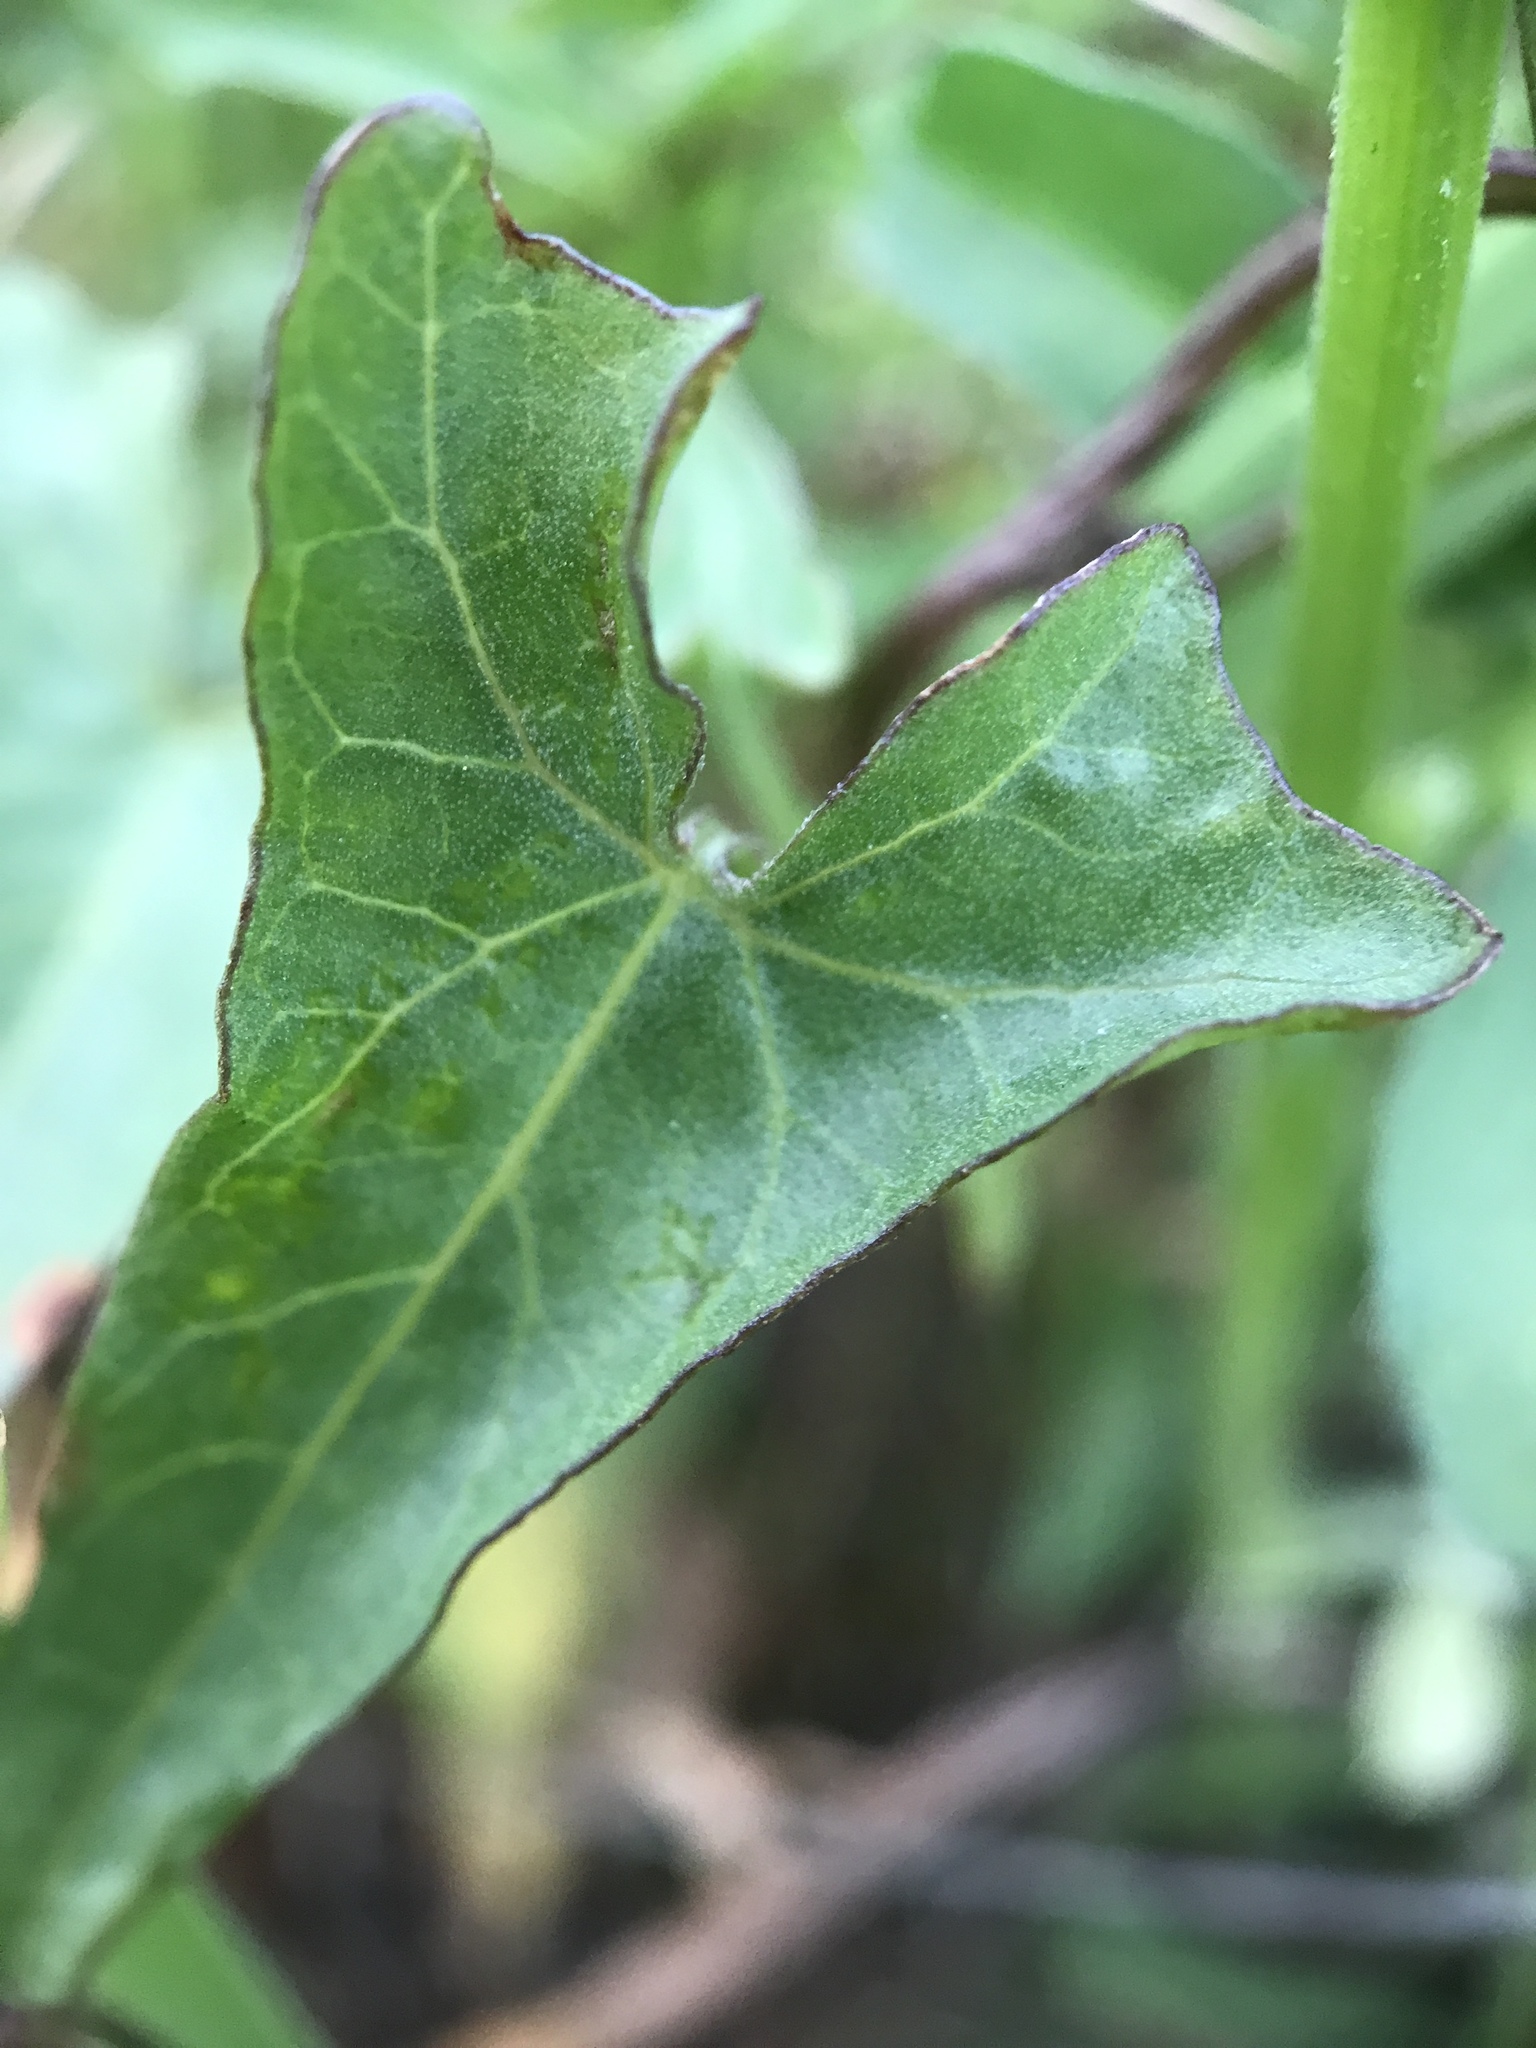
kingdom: Plantae
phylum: Tracheophyta
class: Magnoliopsida
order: Solanales
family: Convolvulaceae
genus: Calystegia
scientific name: Calystegia macrostegia
